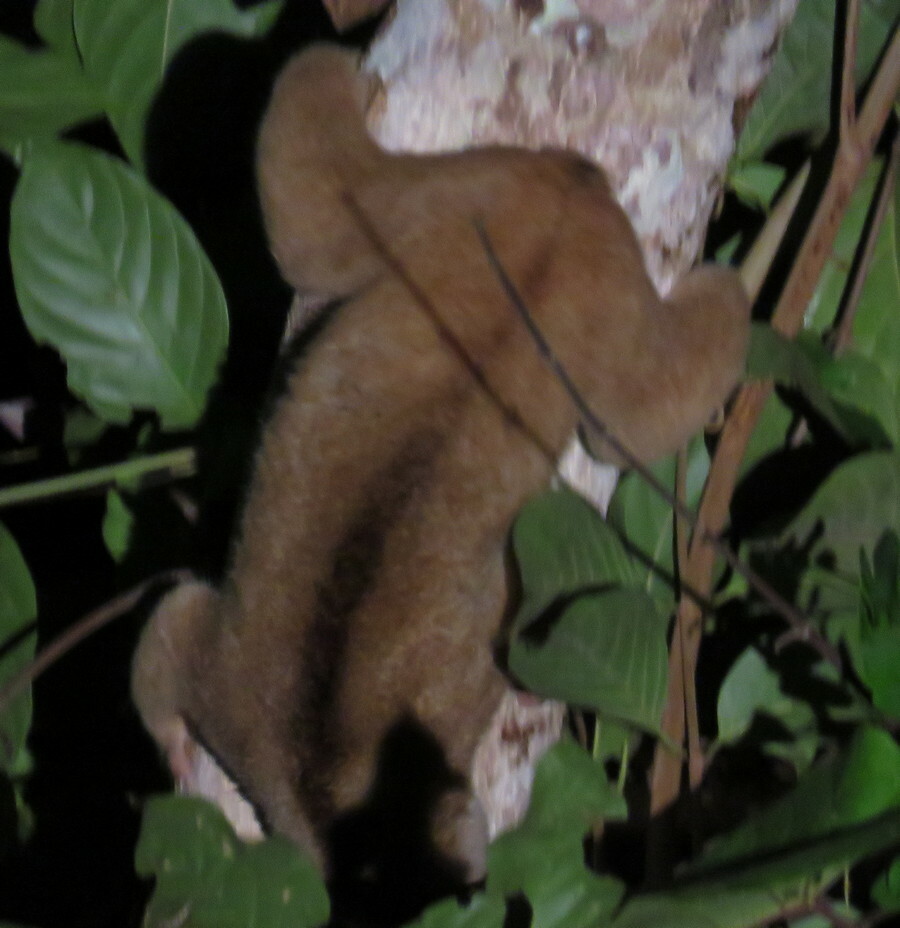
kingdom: Animalia
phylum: Chordata
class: Mammalia
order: Primates
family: Lorisidae
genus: Nycticebus
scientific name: Nycticebus menagensis
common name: Philippine slow loris
